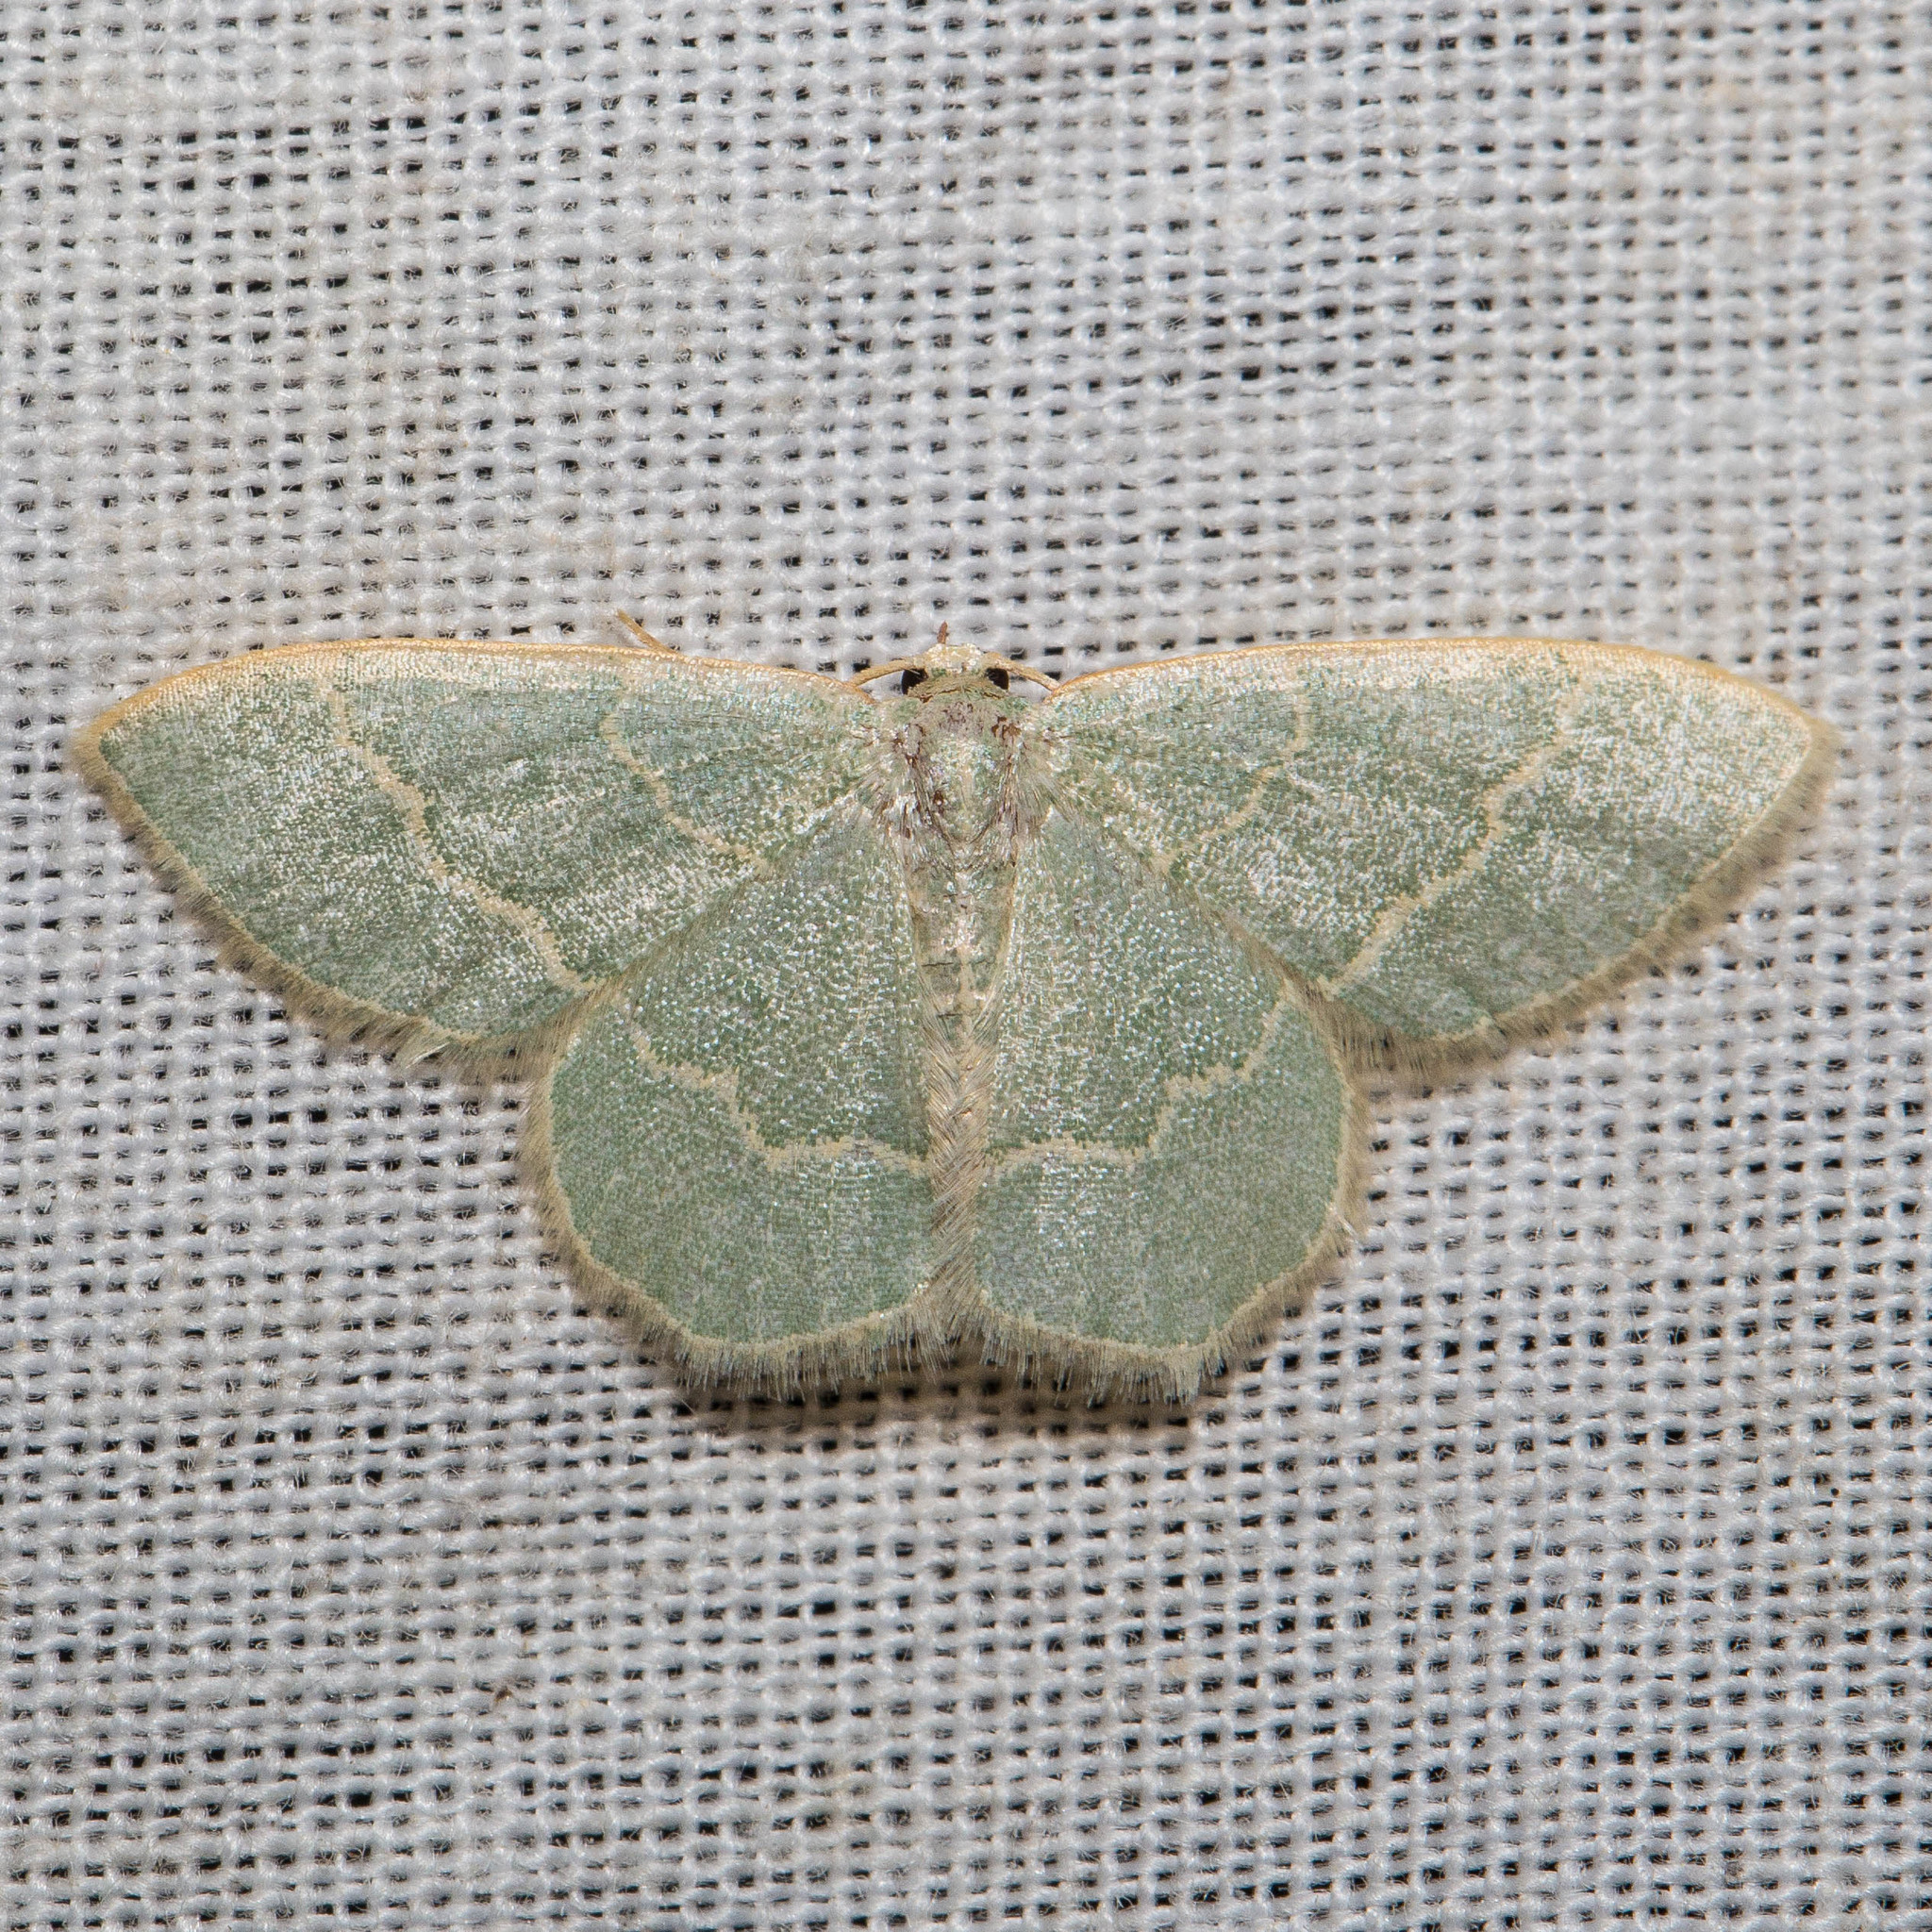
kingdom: Animalia
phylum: Arthropoda
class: Insecta
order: Lepidoptera
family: Geometridae
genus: Chlorochlamys
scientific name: Chlorochlamys appellaria
